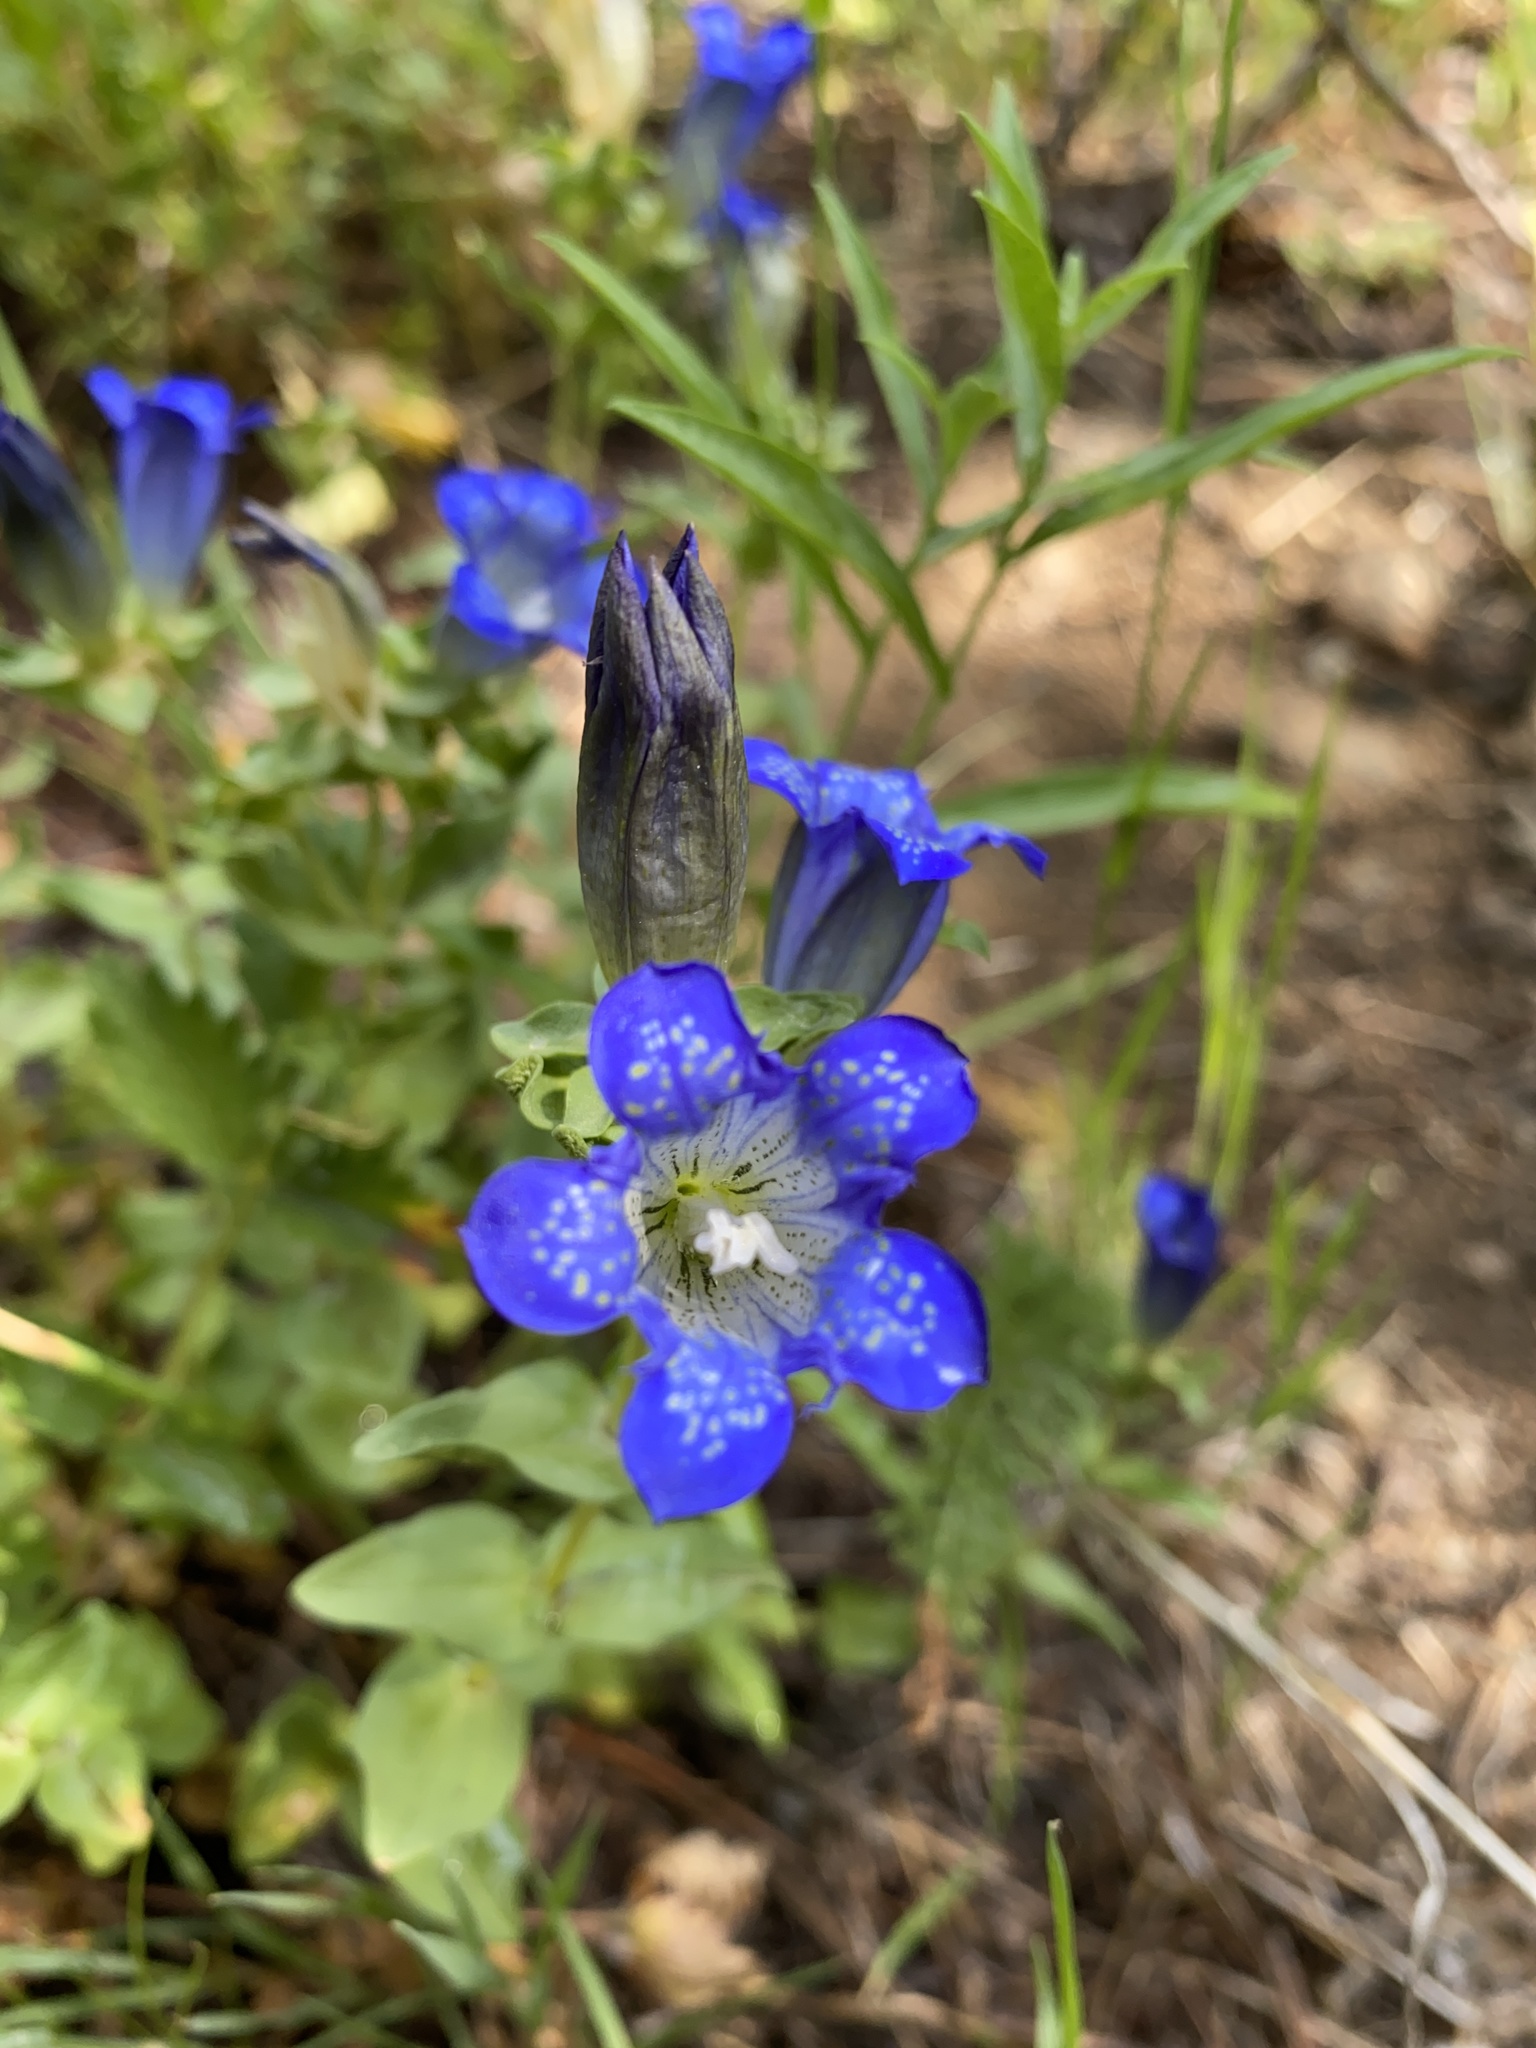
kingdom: Plantae
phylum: Tracheophyta
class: Magnoliopsida
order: Gentianales
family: Gentianaceae
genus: Gentiana
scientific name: Gentiana calycosa
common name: Rainier pleated gentian
